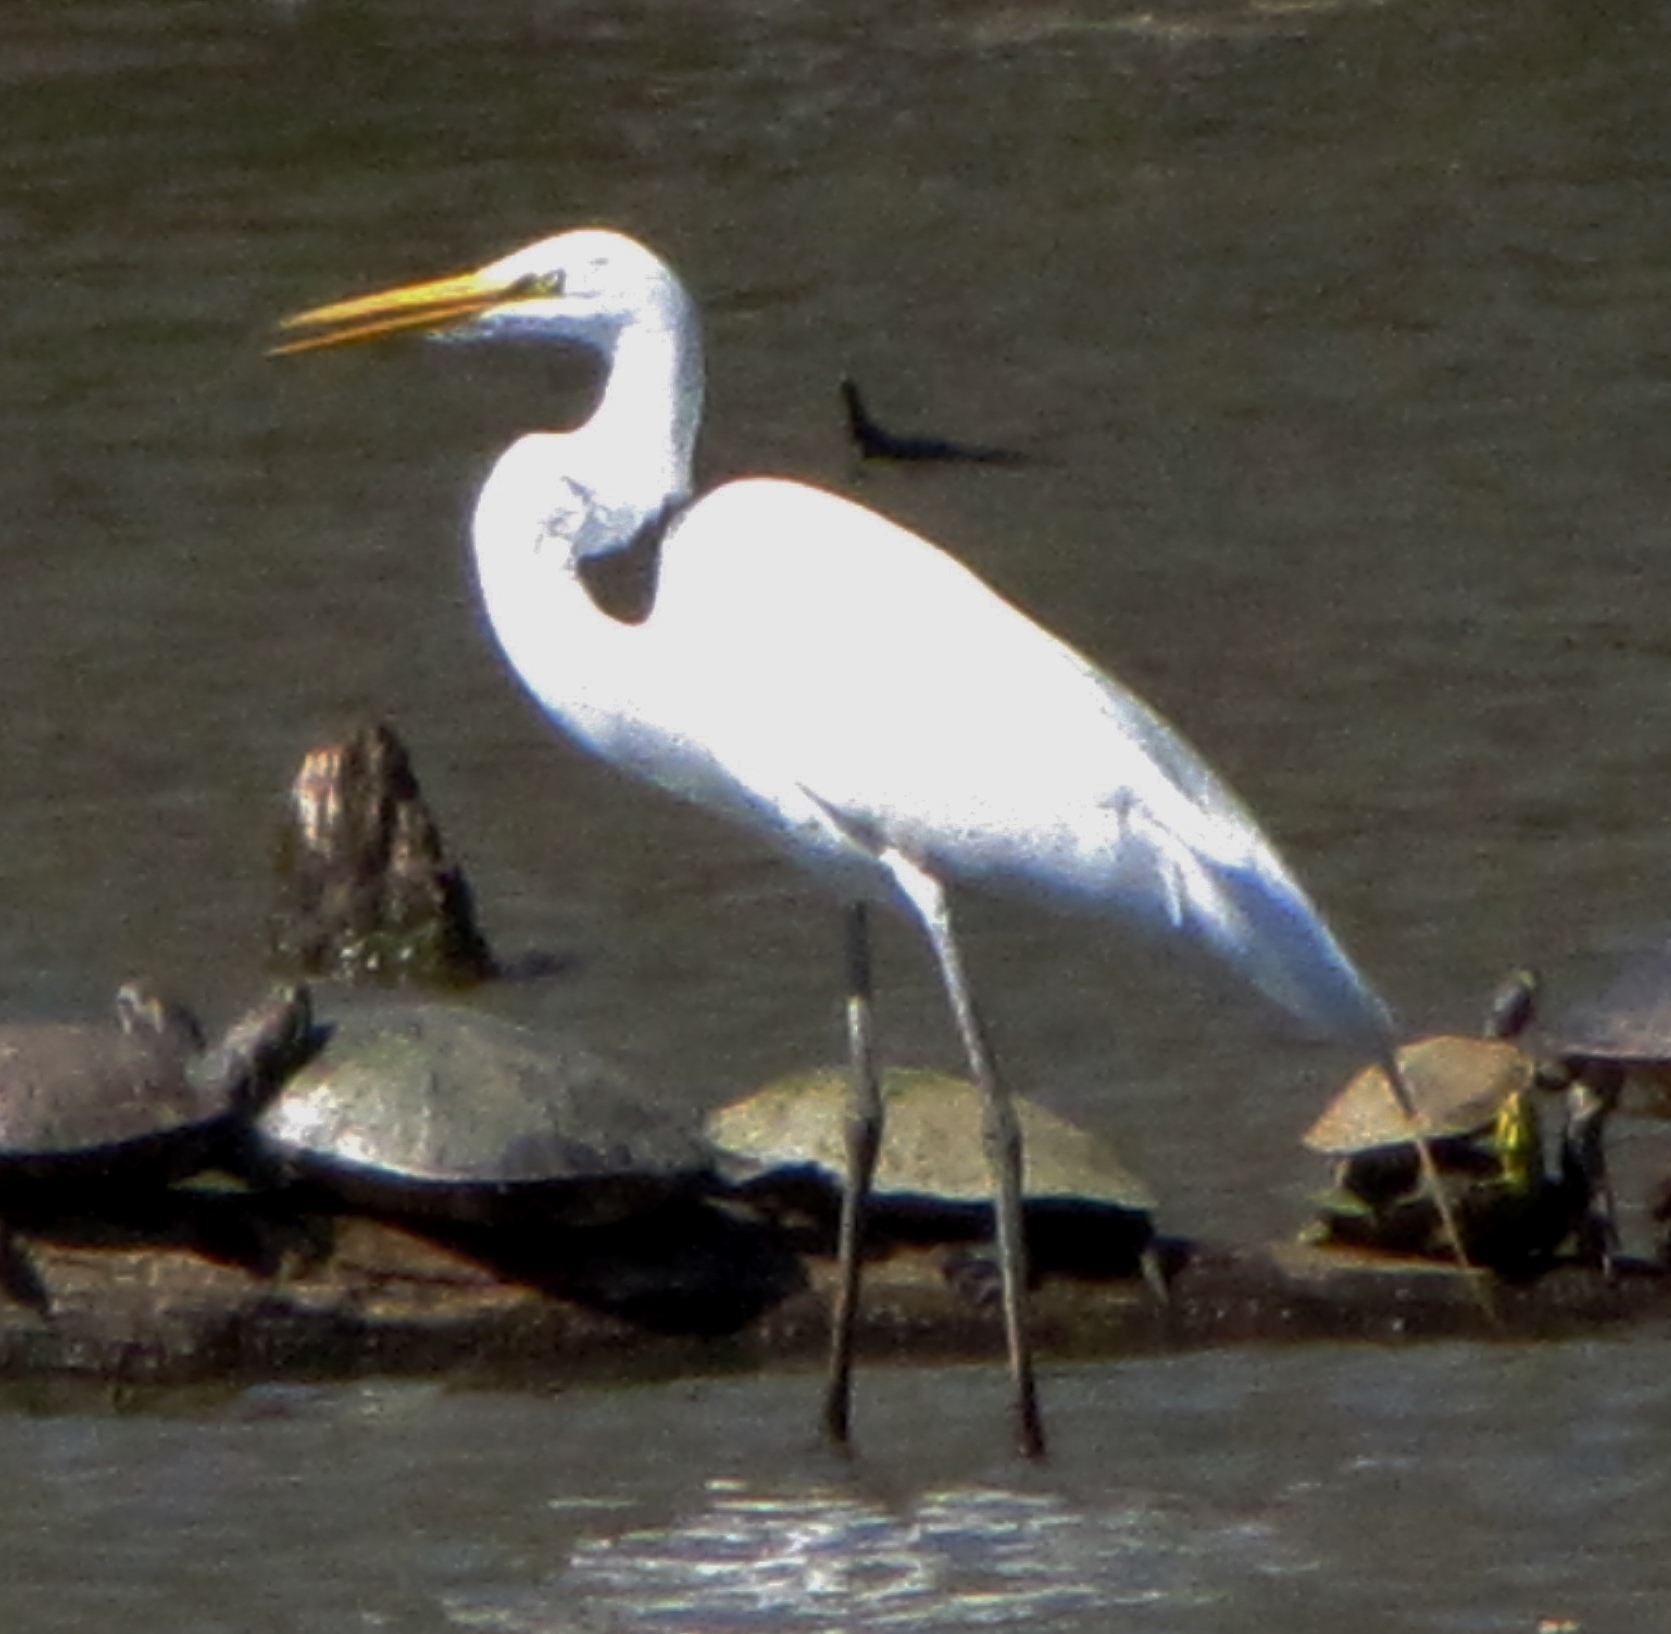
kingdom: Animalia
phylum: Chordata
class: Aves
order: Pelecaniformes
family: Ardeidae
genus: Ardea
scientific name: Ardea alba
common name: Great egret
